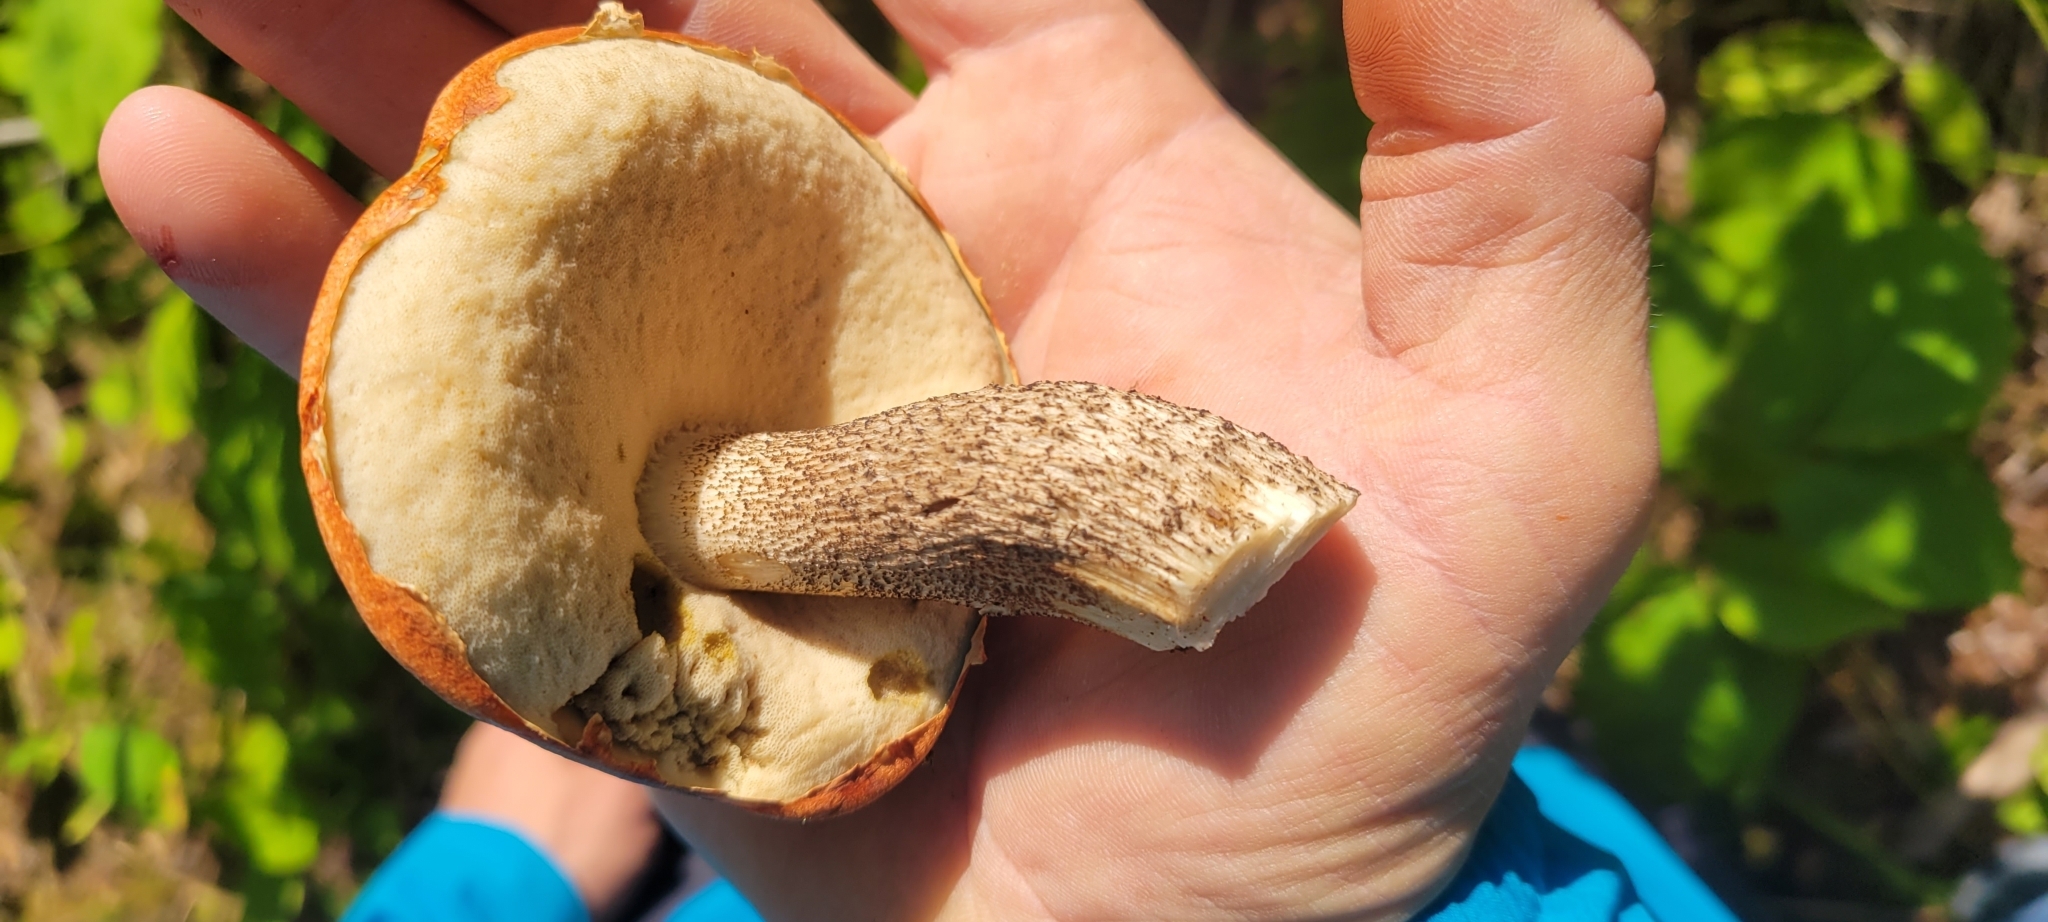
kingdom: Fungi
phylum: Basidiomycota
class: Agaricomycetes
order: Boletales
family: Boletaceae
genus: Leccinum
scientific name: Leccinum insigne
